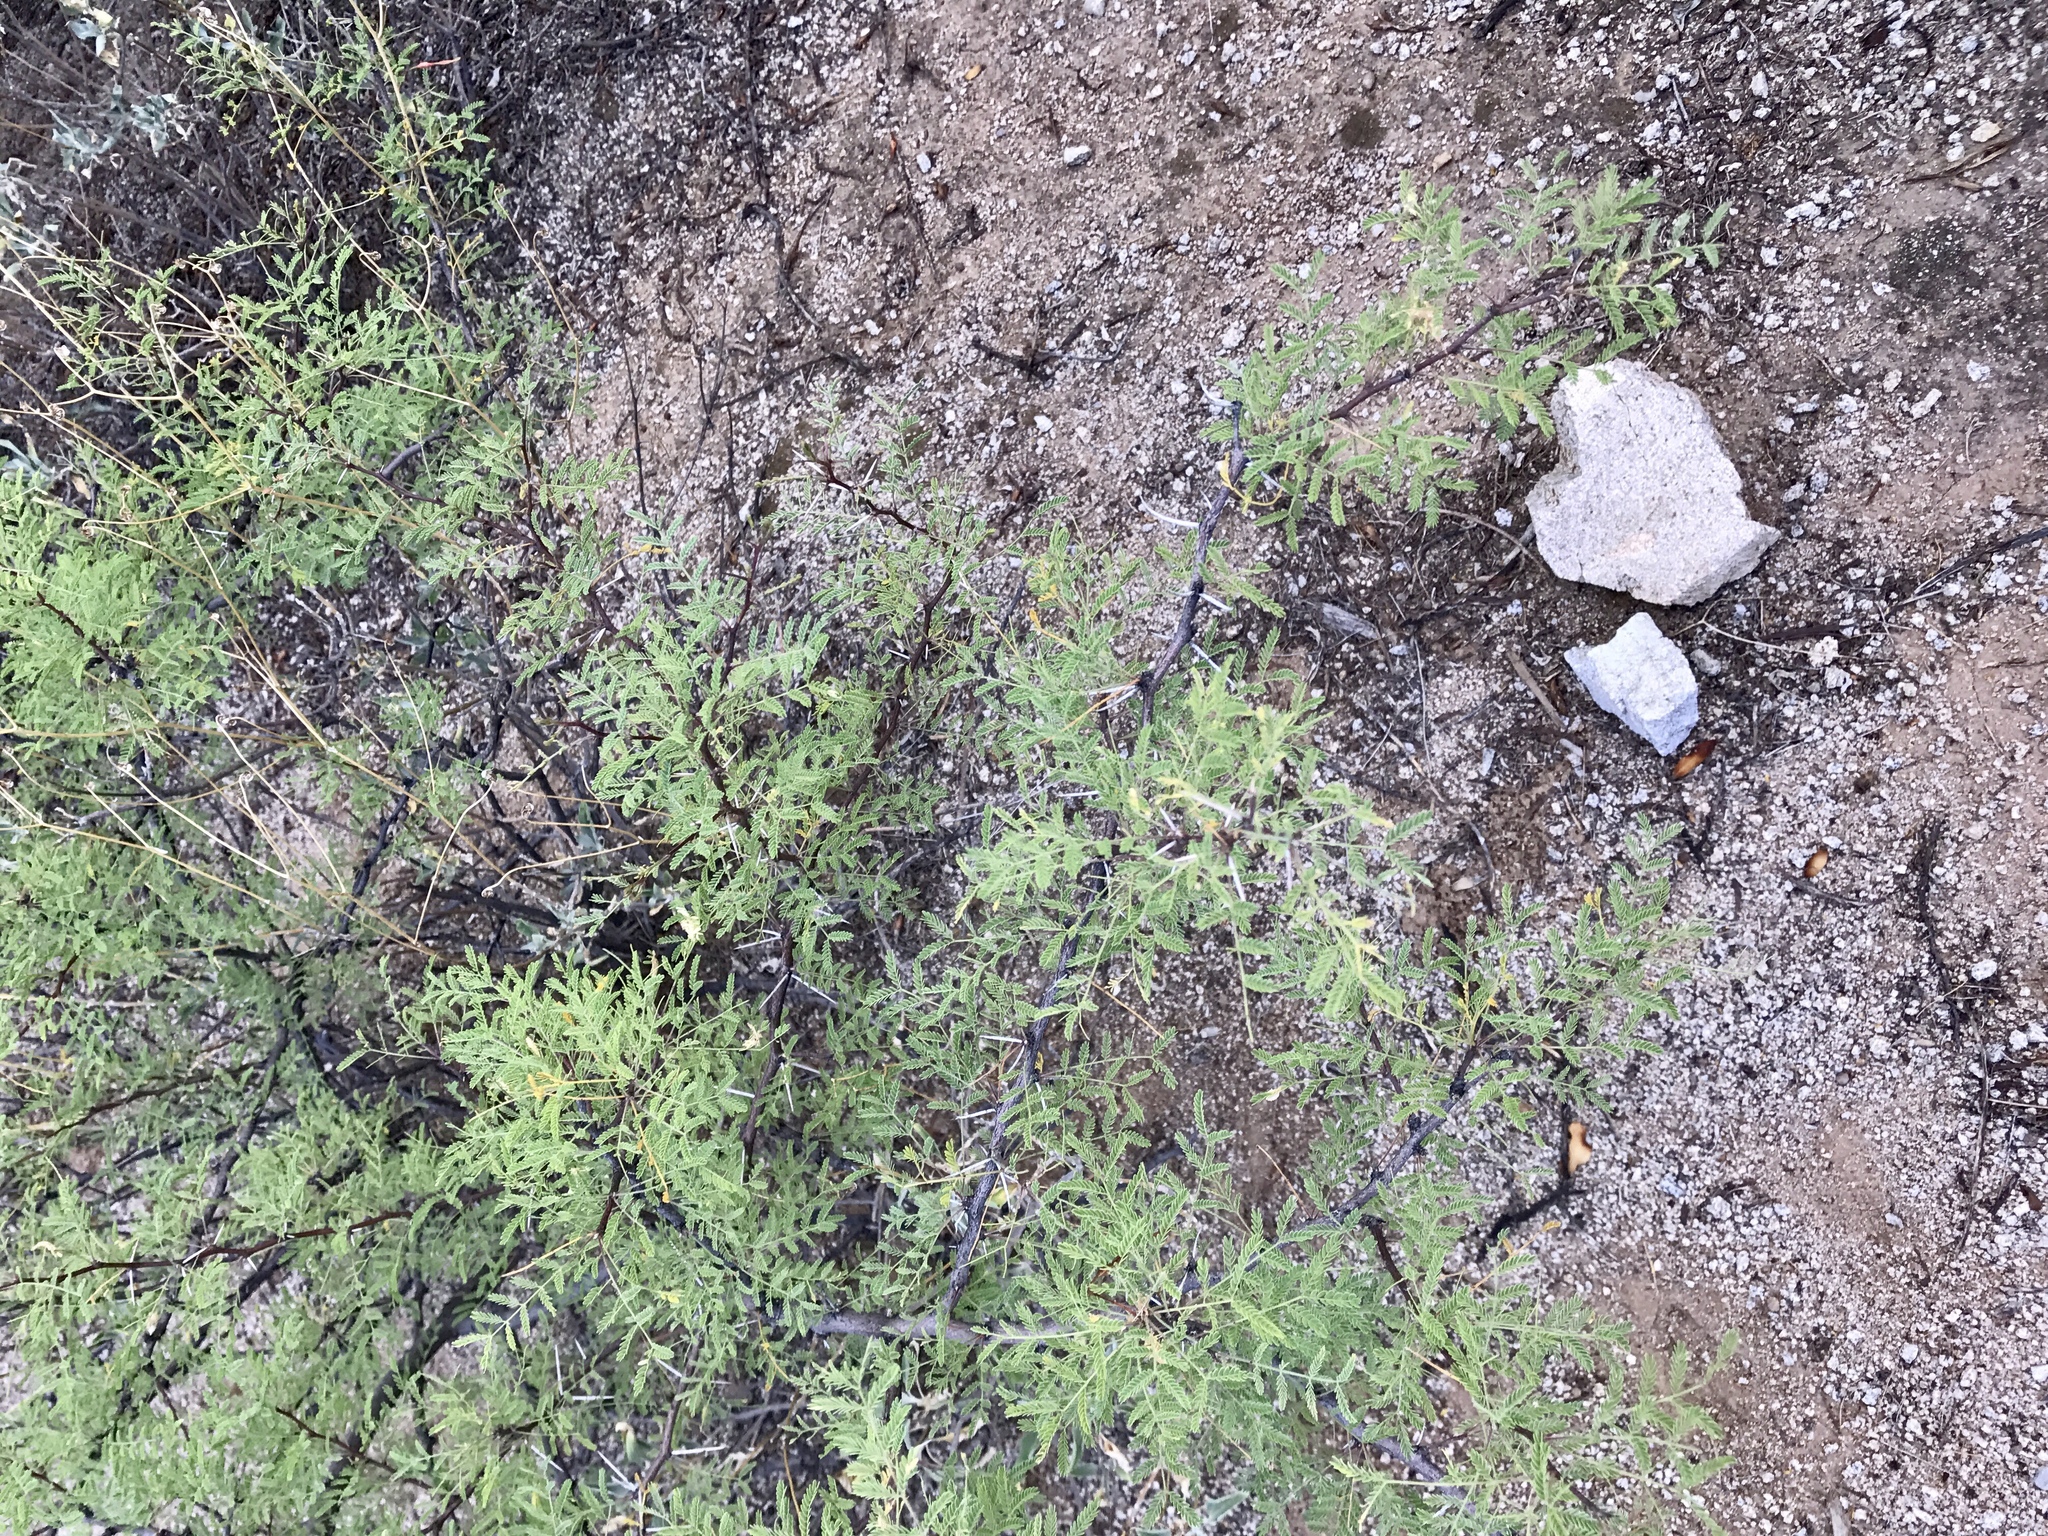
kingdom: Plantae
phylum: Tracheophyta
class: Magnoliopsida
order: Fabales
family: Fabaceae
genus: Vachellia
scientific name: Vachellia constricta
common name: Mescat acacia
